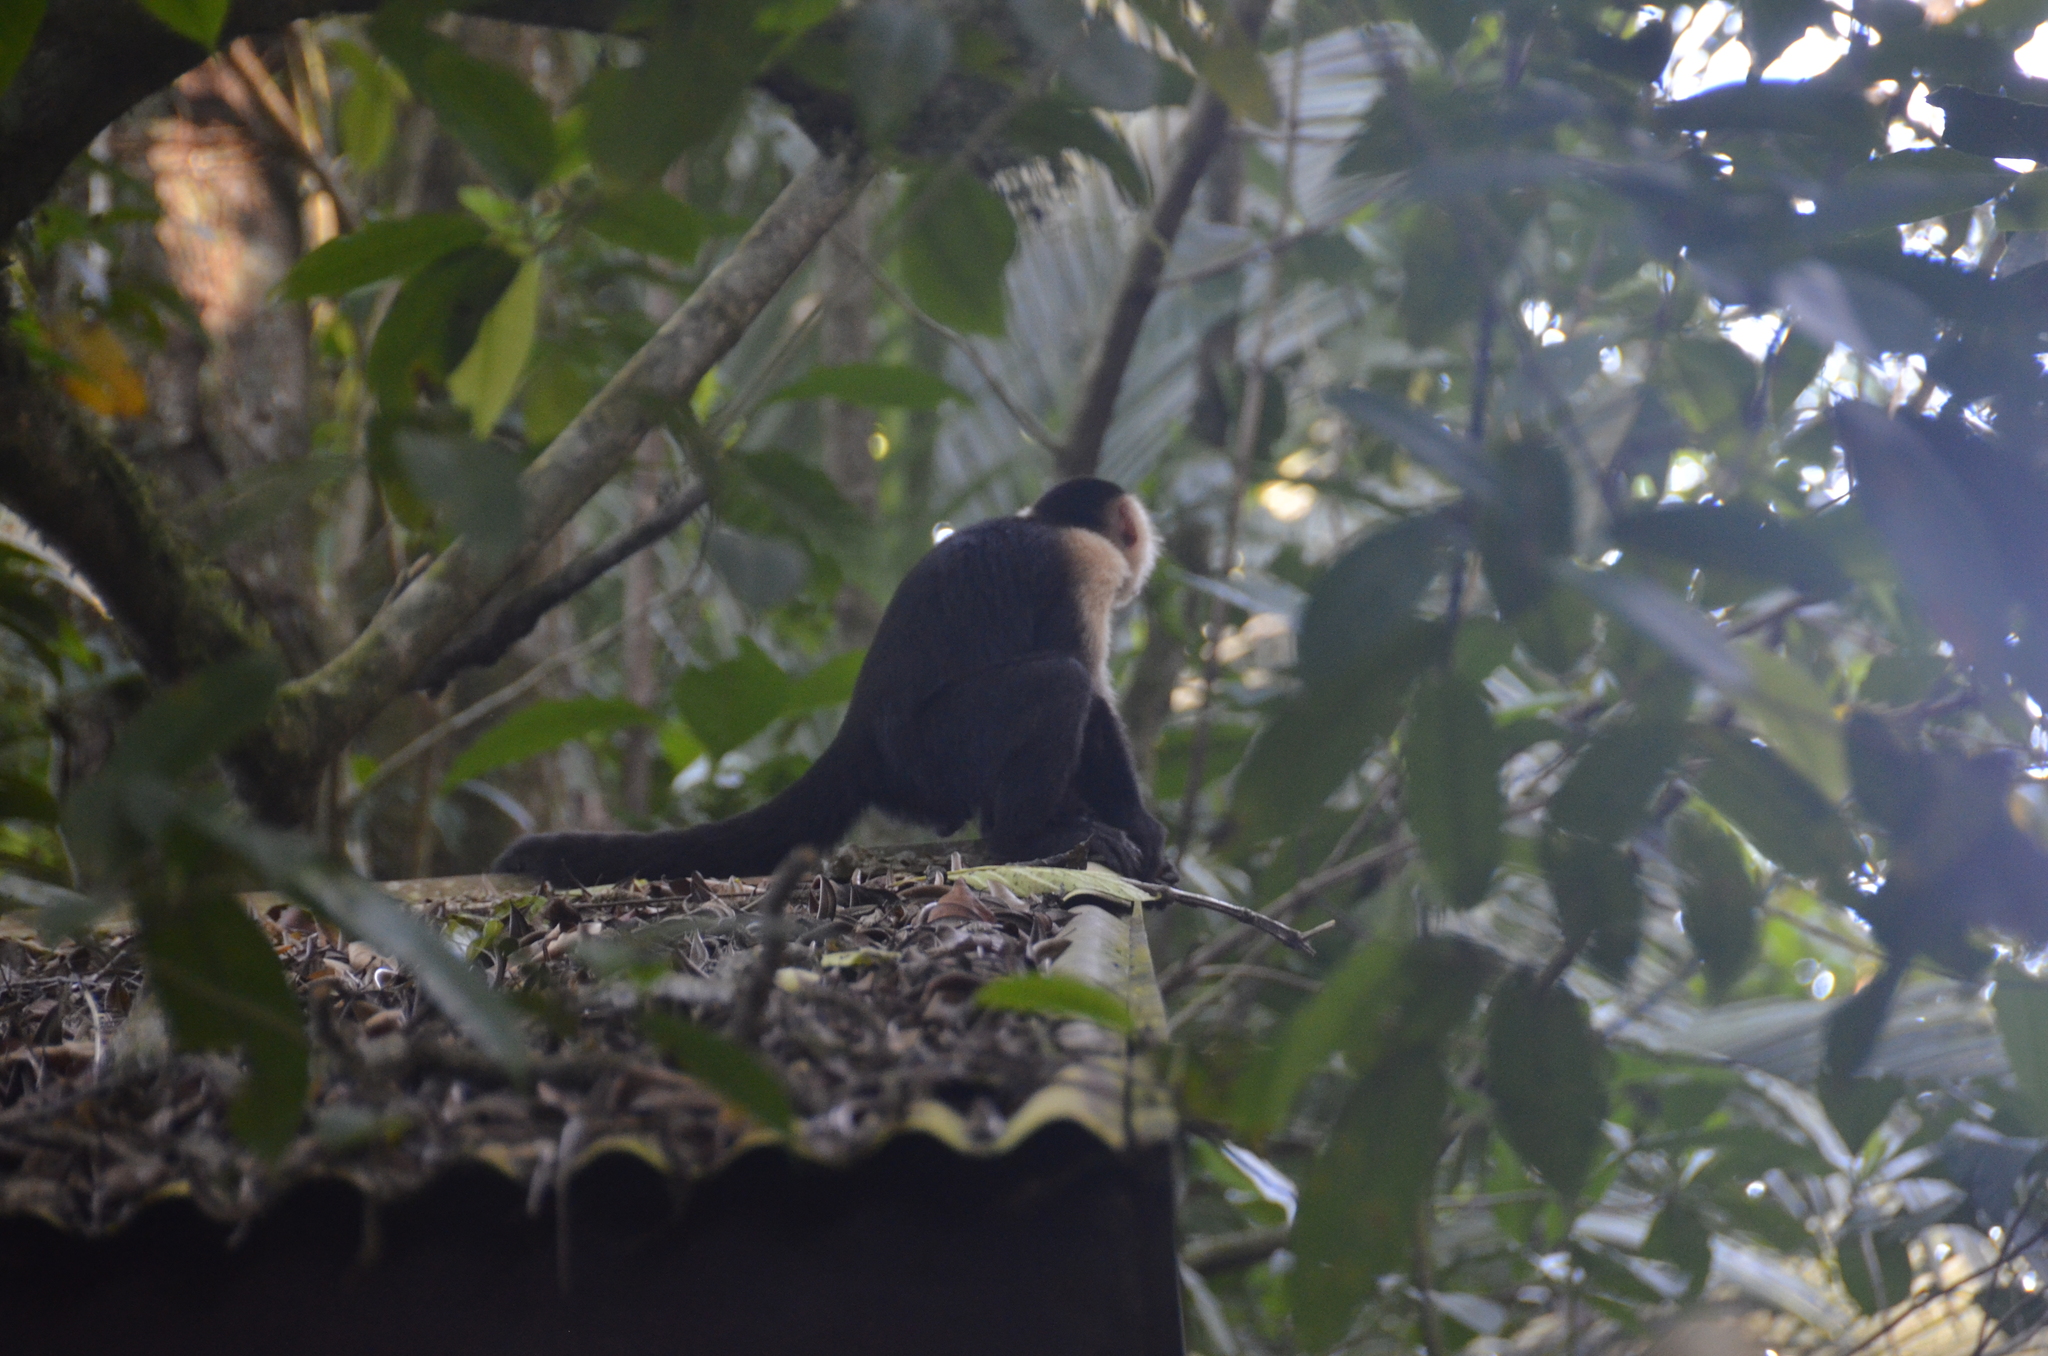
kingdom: Animalia
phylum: Chordata
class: Mammalia
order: Primates
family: Cebidae
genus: Cebus
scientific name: Cebus imitator
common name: Panamanian white-faced capuchin
